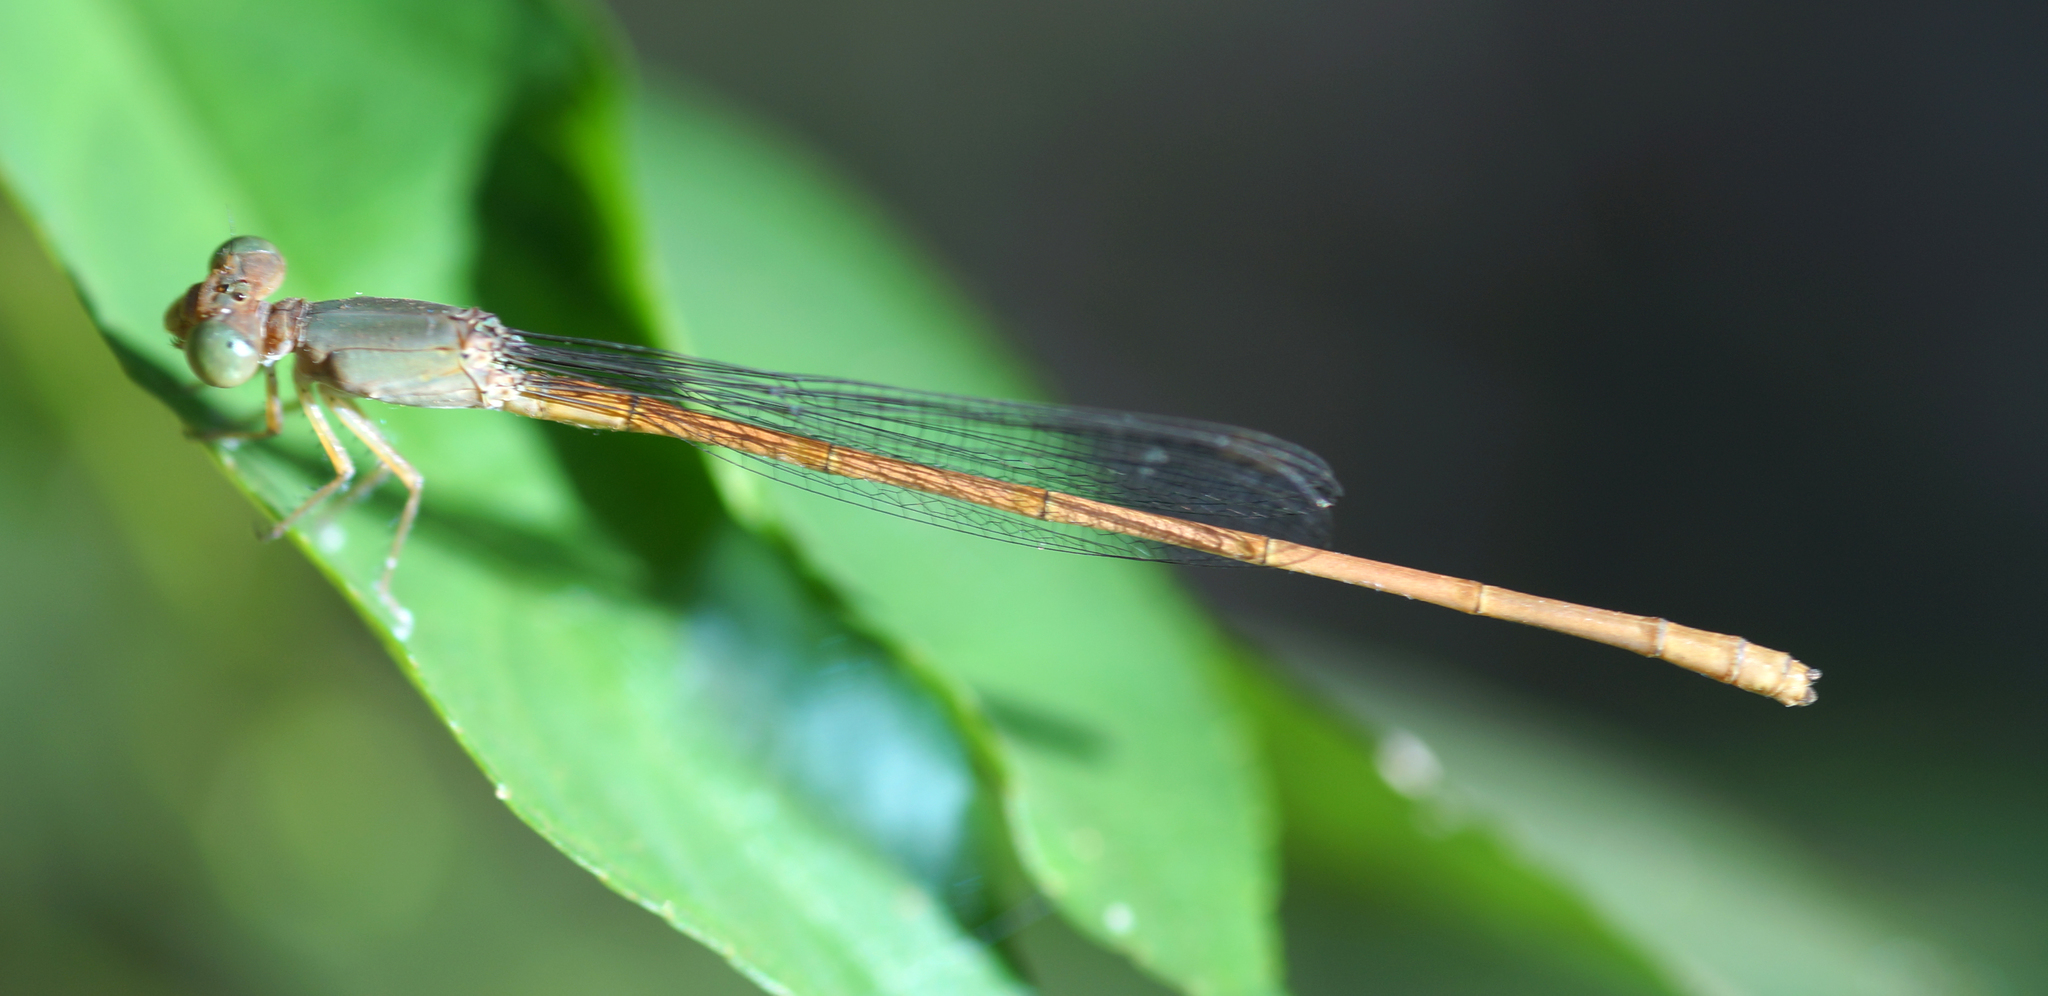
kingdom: Animalia
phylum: Arthropoda
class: Insecta
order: Odonata
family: Coenagrionidae
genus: Ceriagrion
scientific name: Ceriagrion olivaceum
